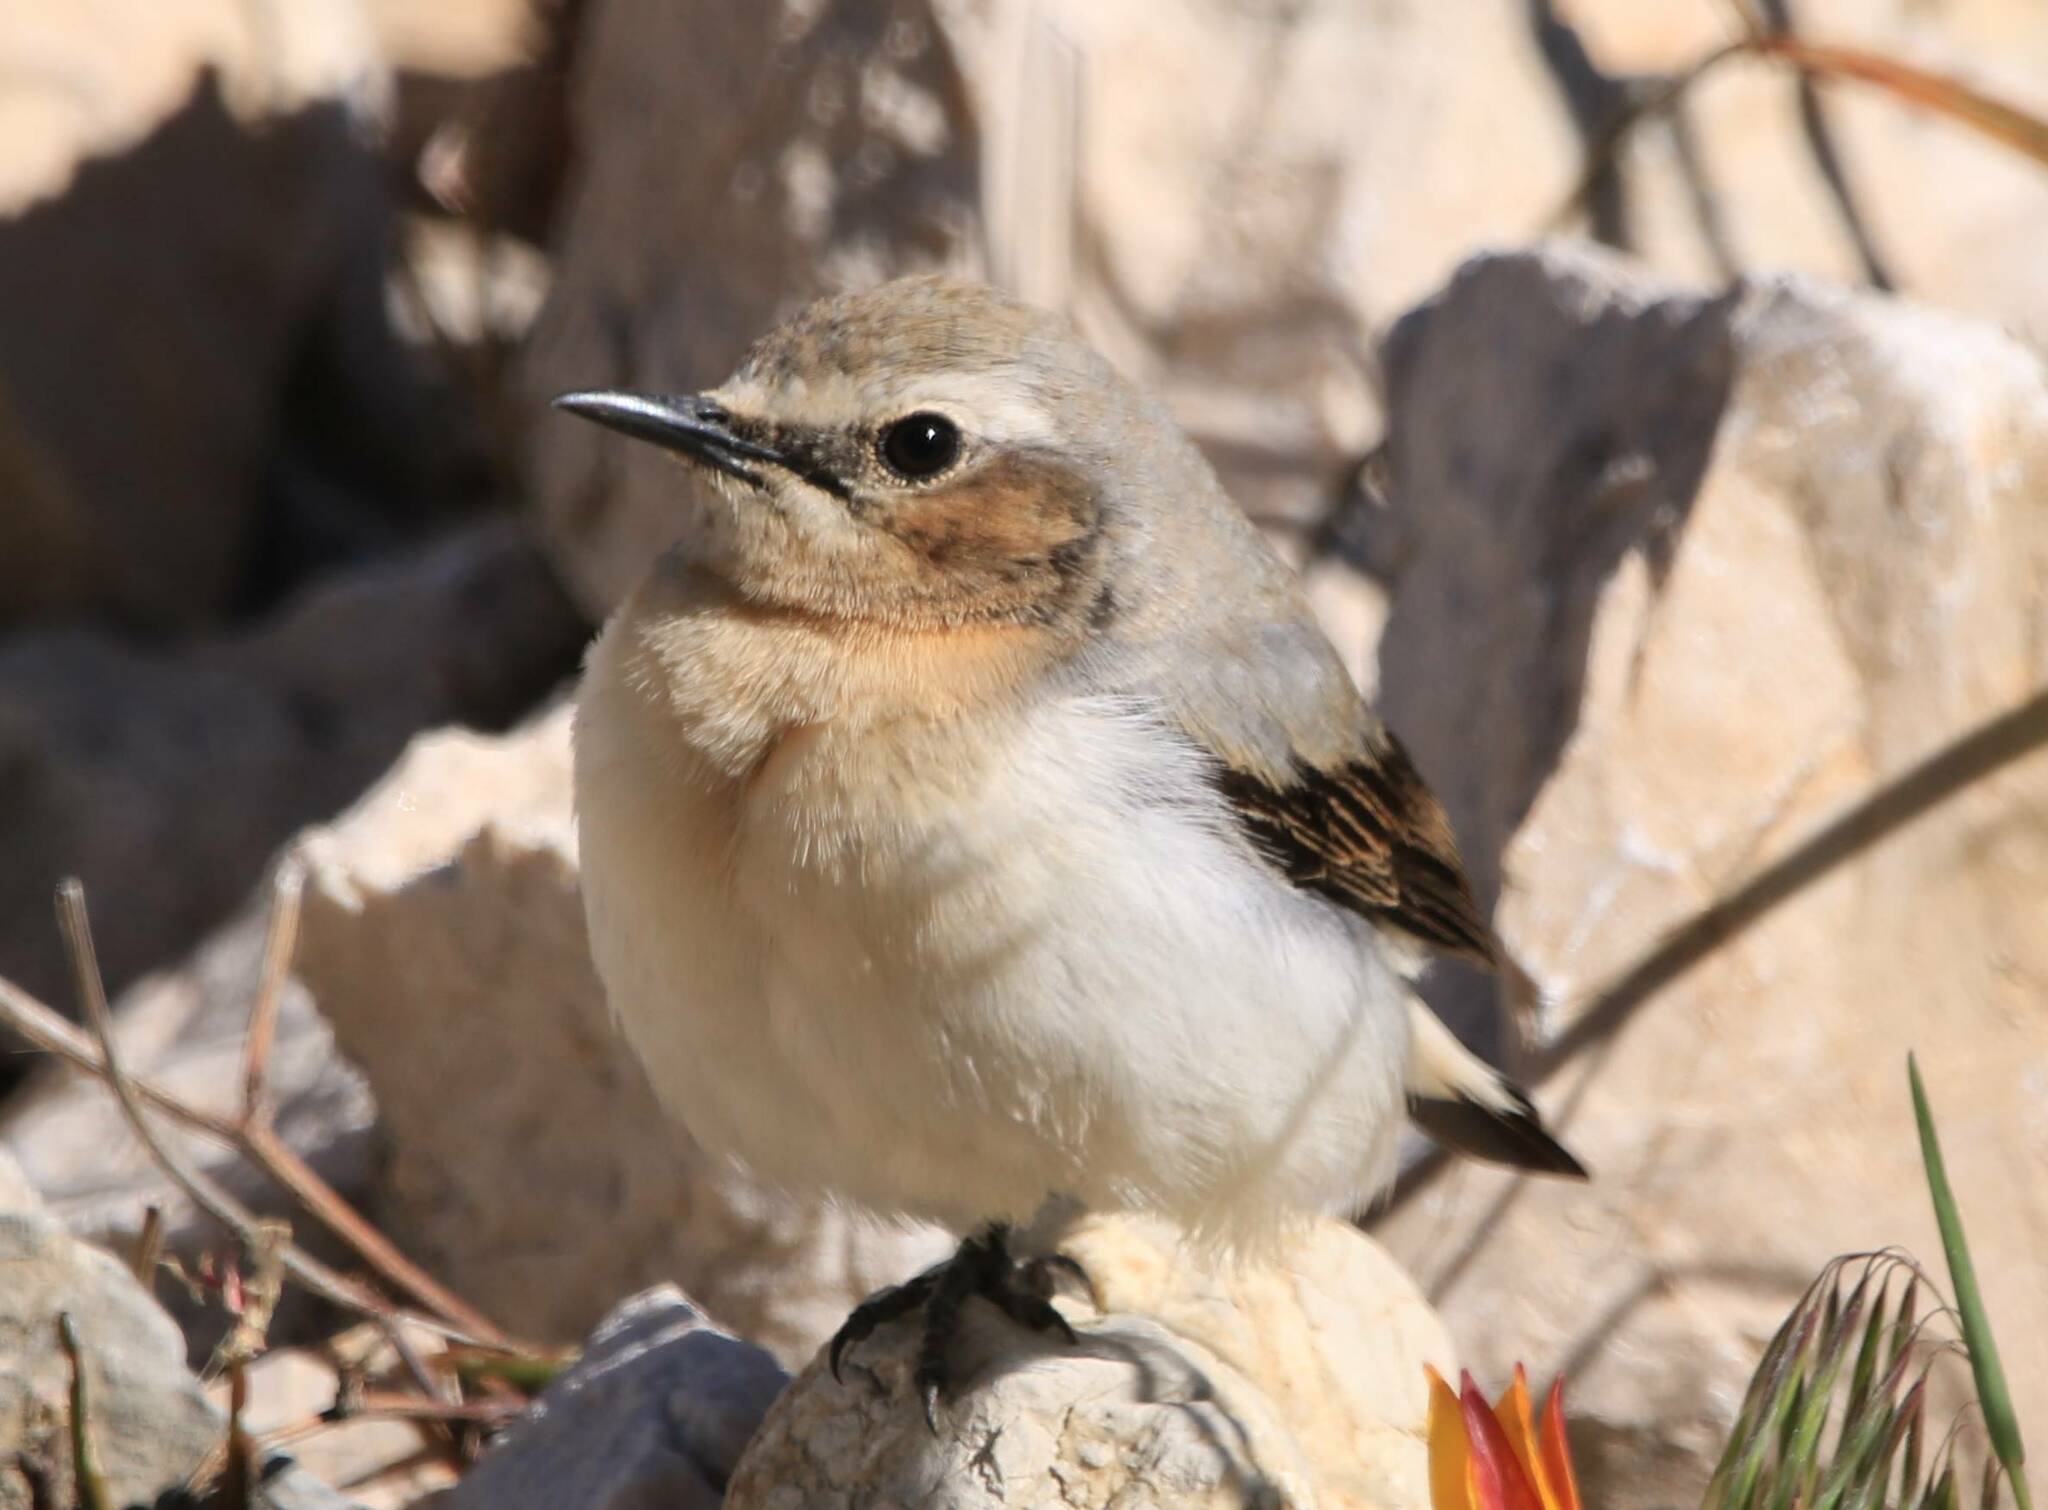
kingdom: Animalia
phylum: Chordata
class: Aves
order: Passeriformes
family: Muscicapidae
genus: Oenanthe
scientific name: Oenanthe oenanthe
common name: Northern wheatear
